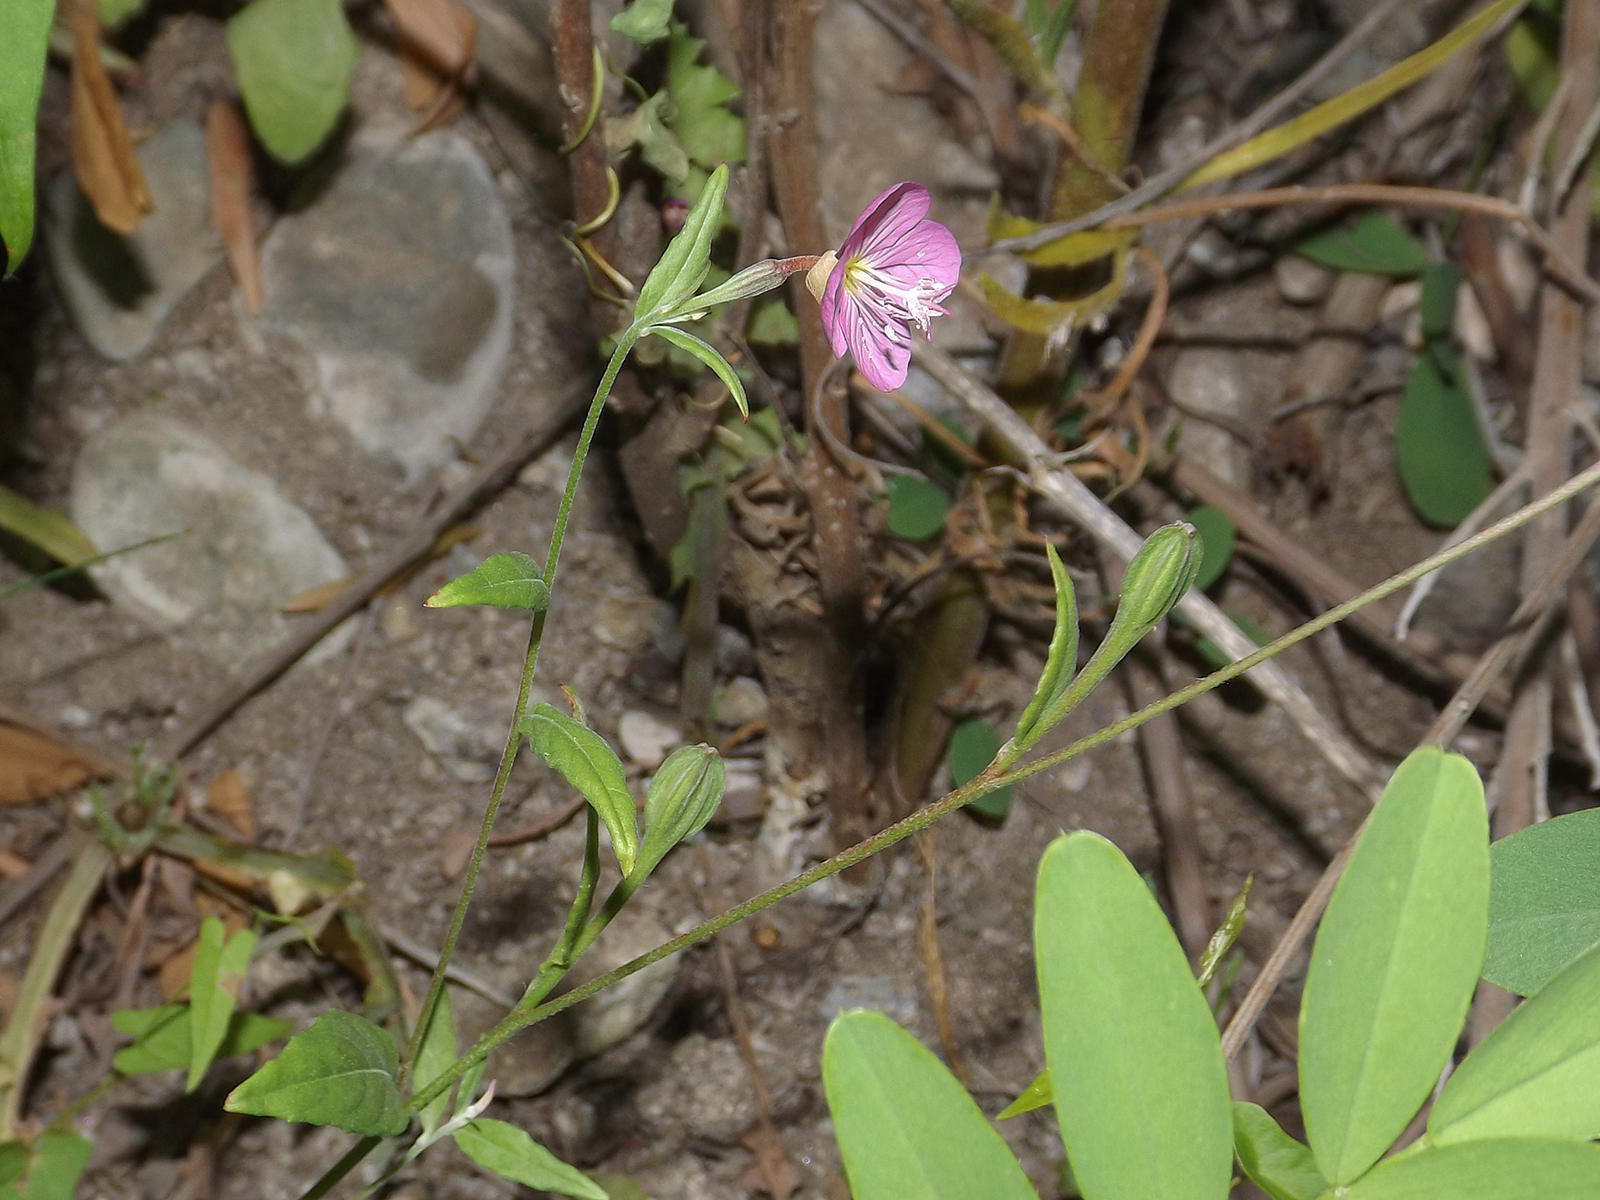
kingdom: Plantae
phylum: Tracheophyta
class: Magnoliopsida
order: Myrtales
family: Onagraceae
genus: Oenothera
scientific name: Oenothera rosea
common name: Rosy evening-primrose
